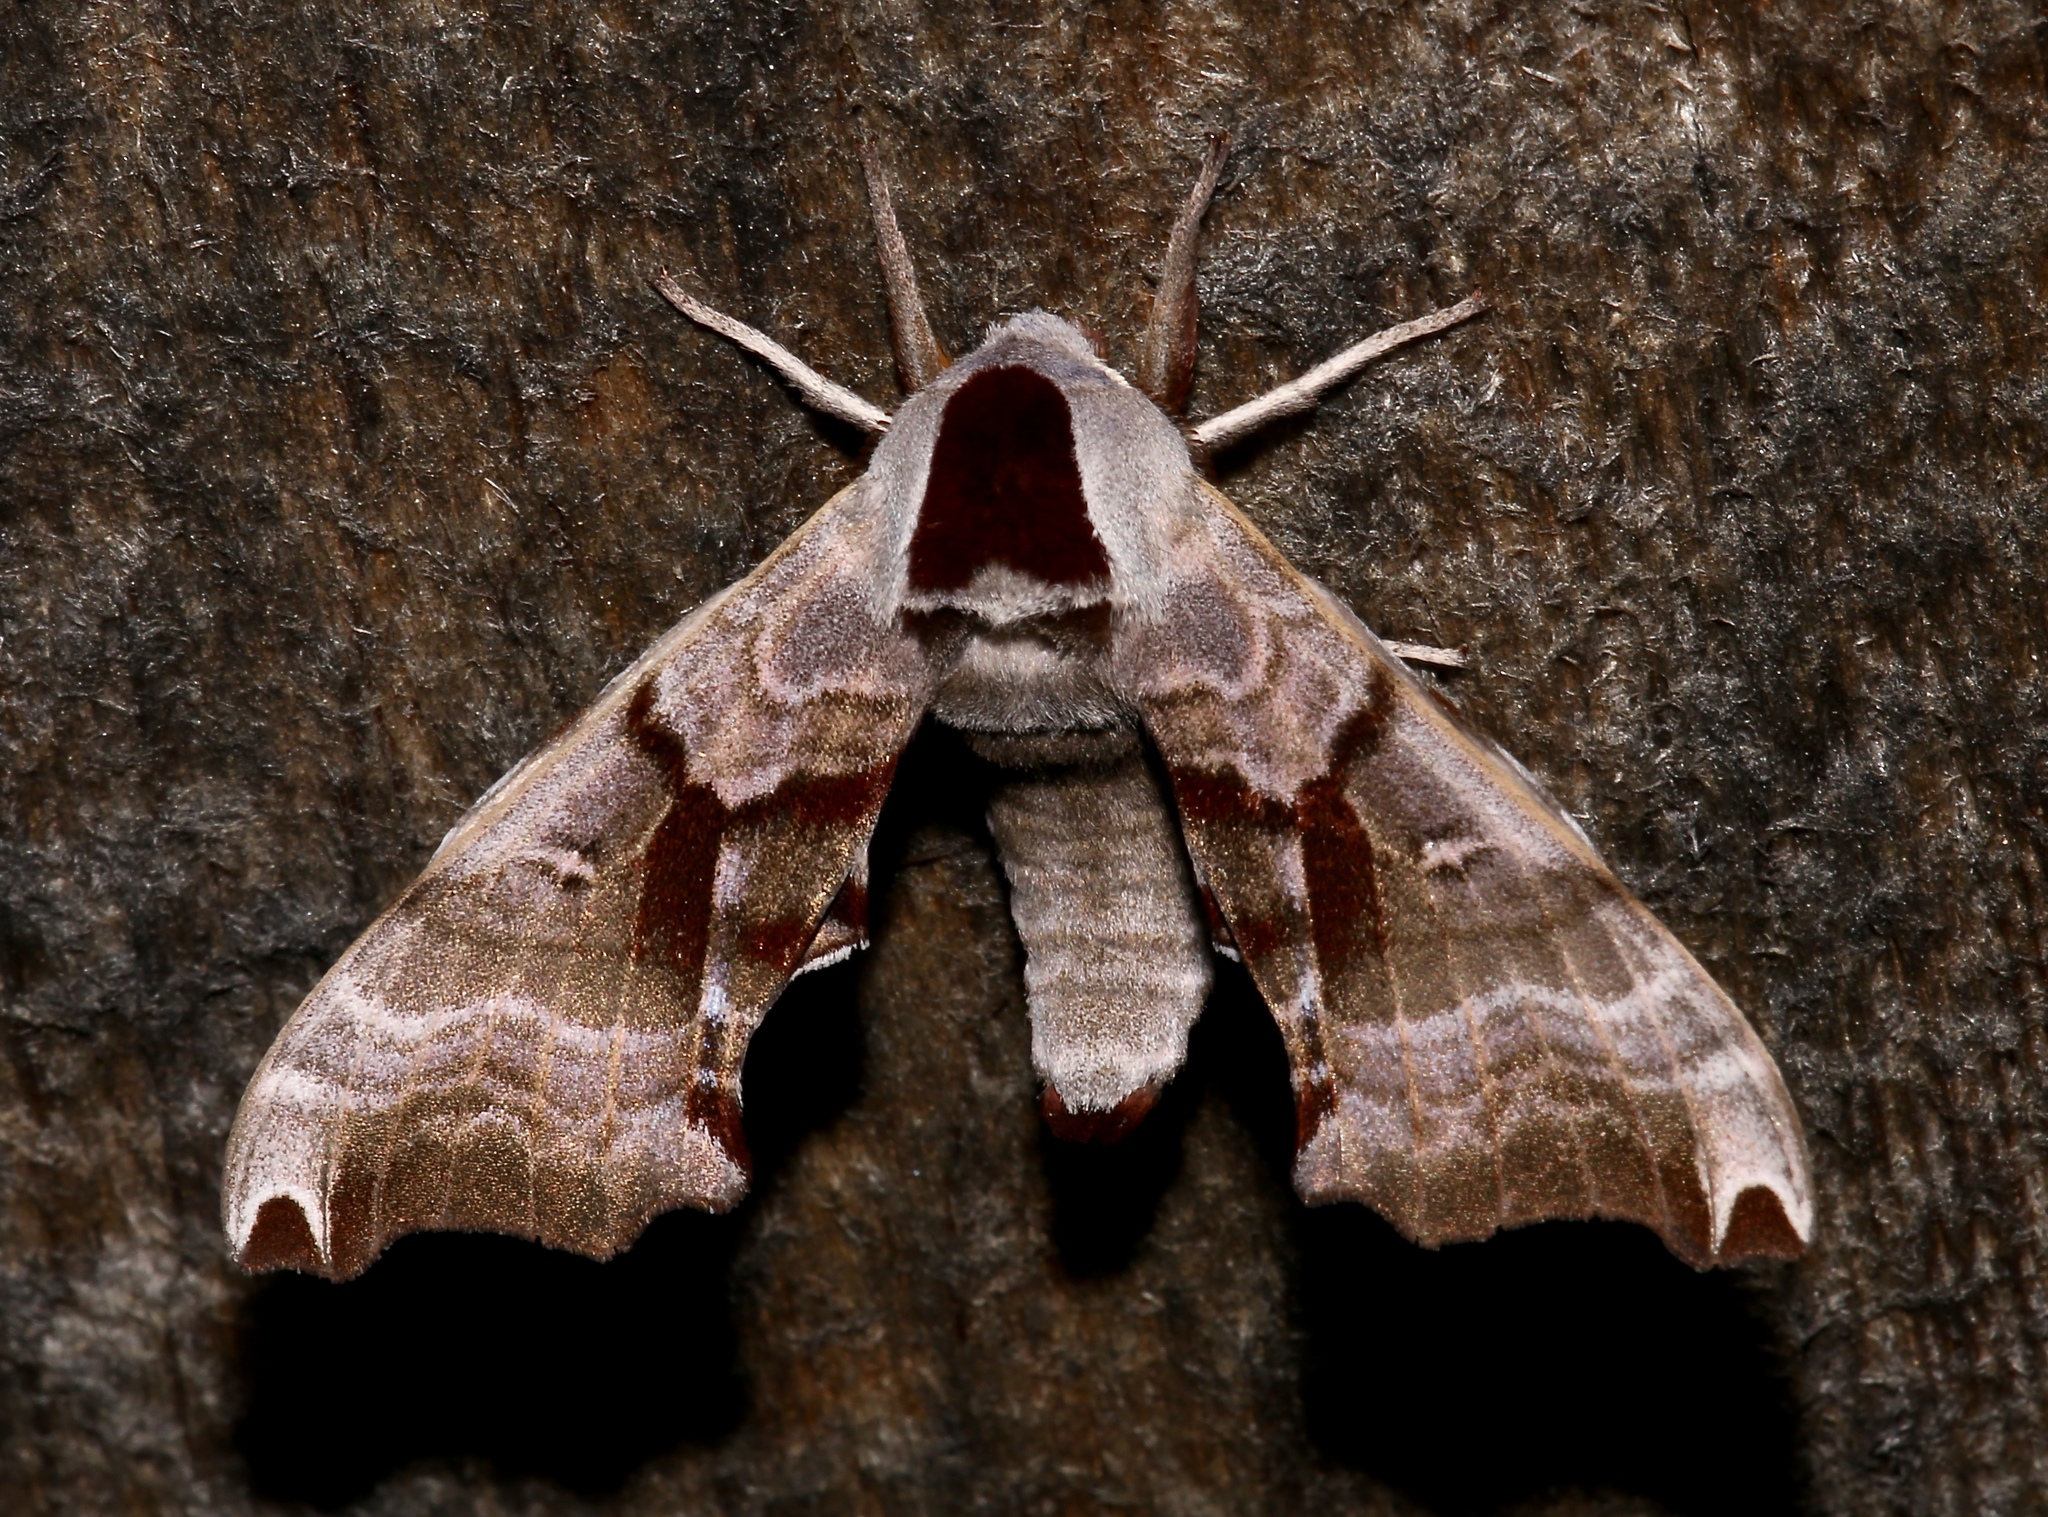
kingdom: Animalia
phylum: Arthropoda
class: Insecta
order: Lepidoptera
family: Sphingidae
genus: Smerinthus
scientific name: Smerinthus jamaicensis
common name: Twin spotted sphinx
